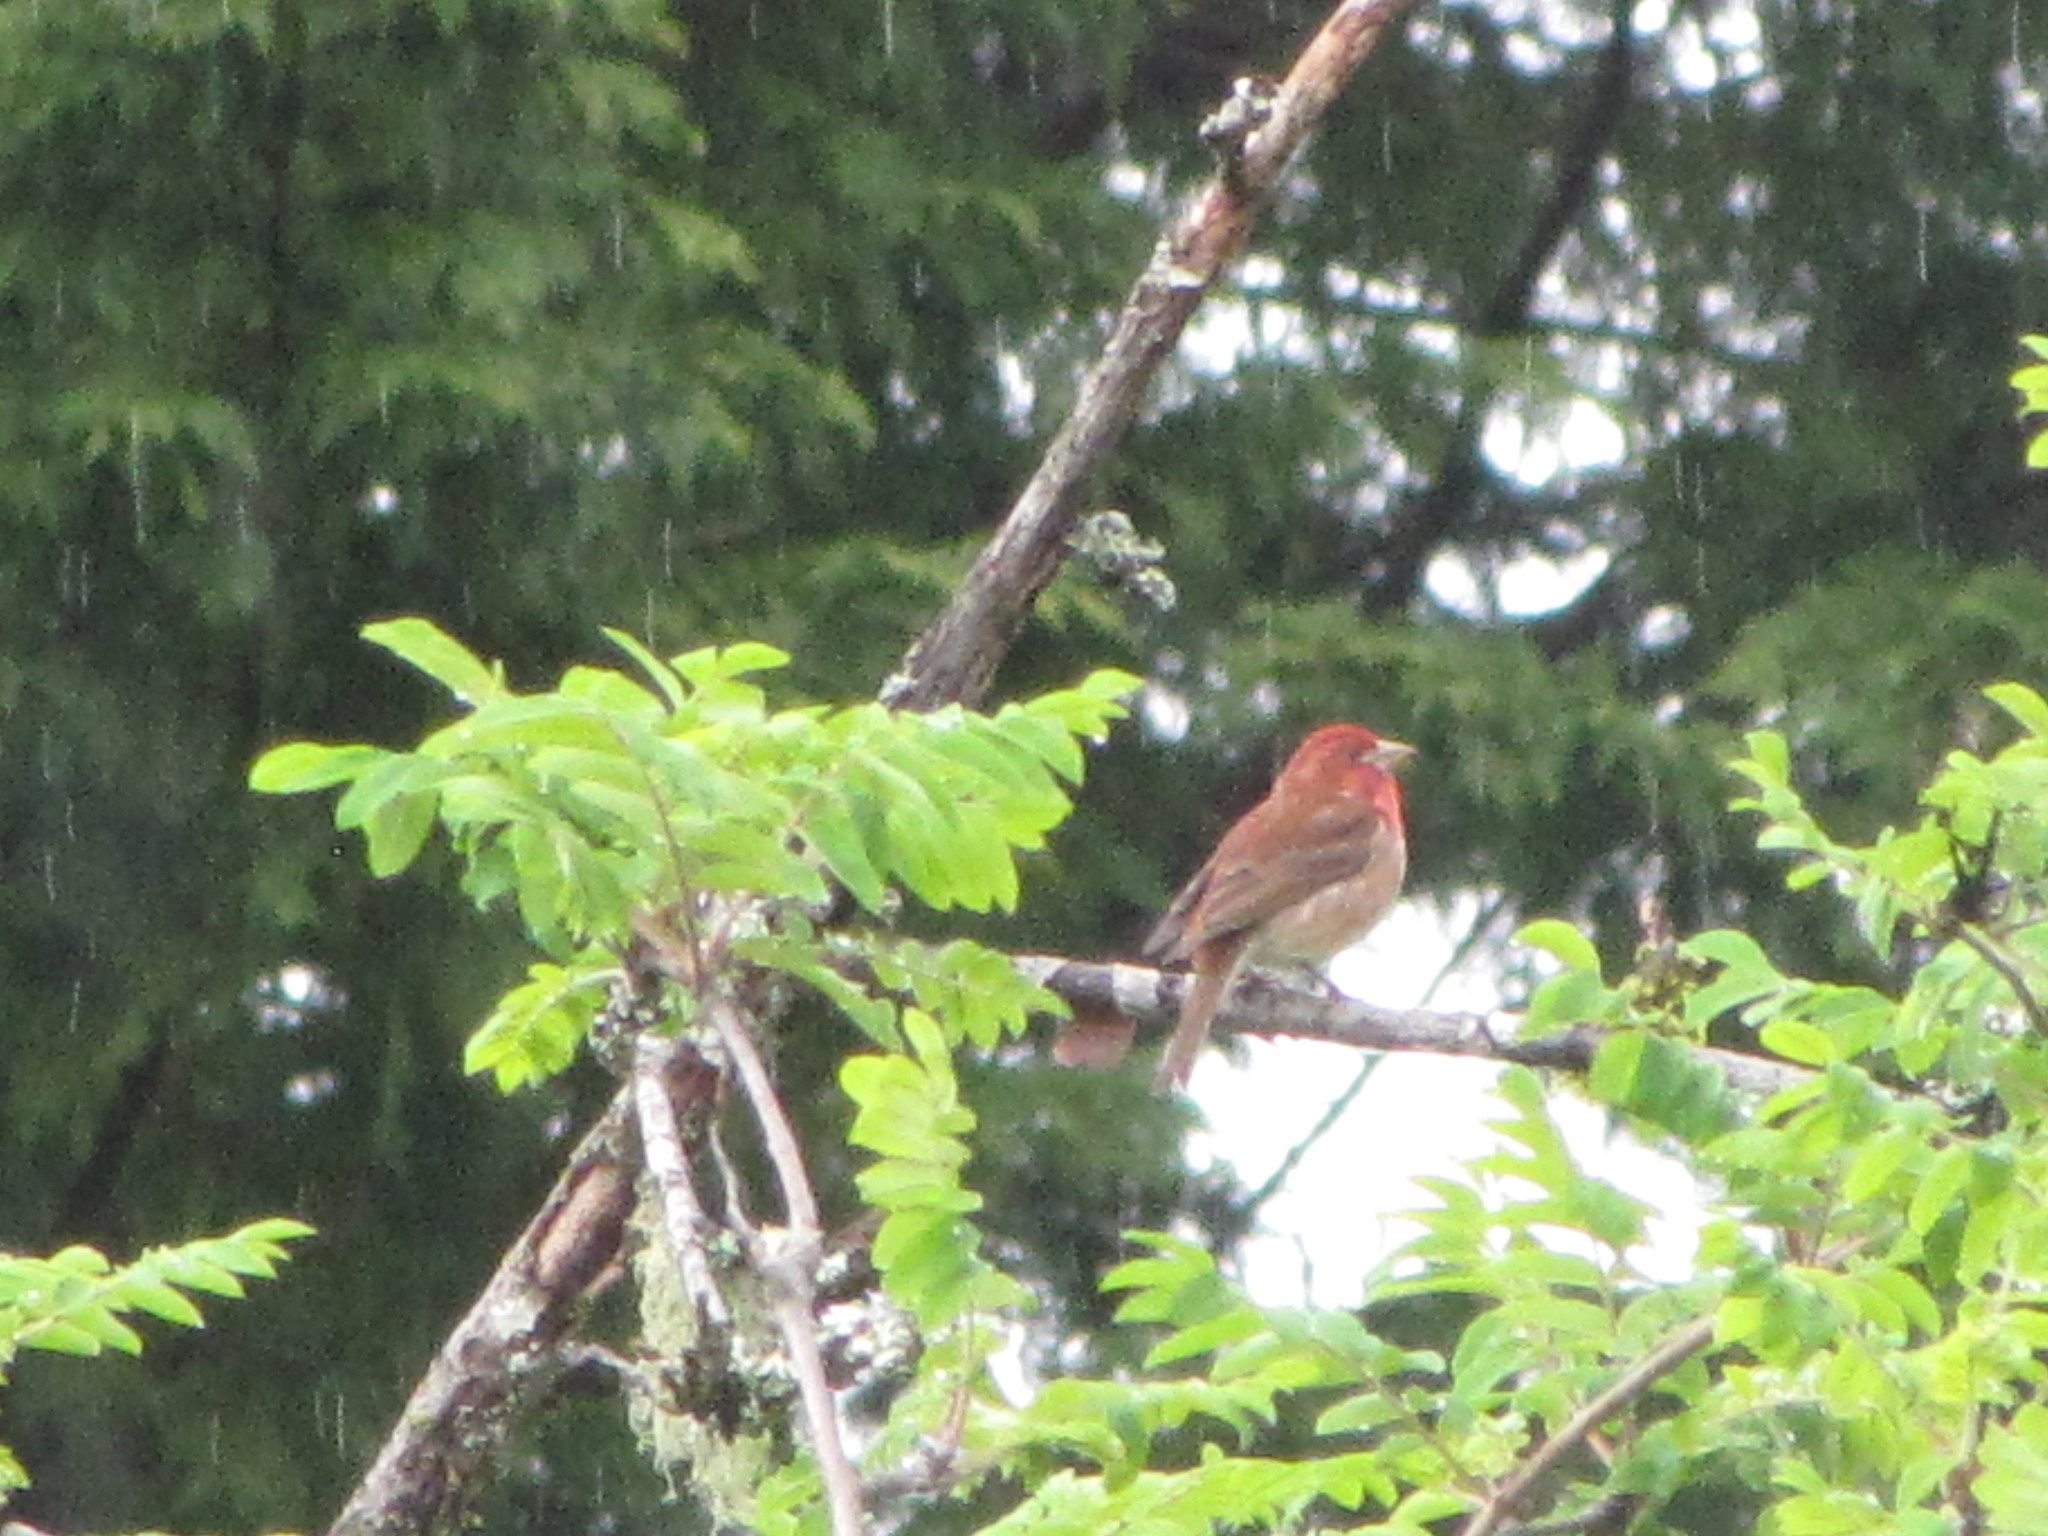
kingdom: Animalia
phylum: Chordata
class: Aves
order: Passeriformes
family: Fringillidae
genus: Haemorhous
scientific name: Haemorhous purpureus
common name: Purple finch
